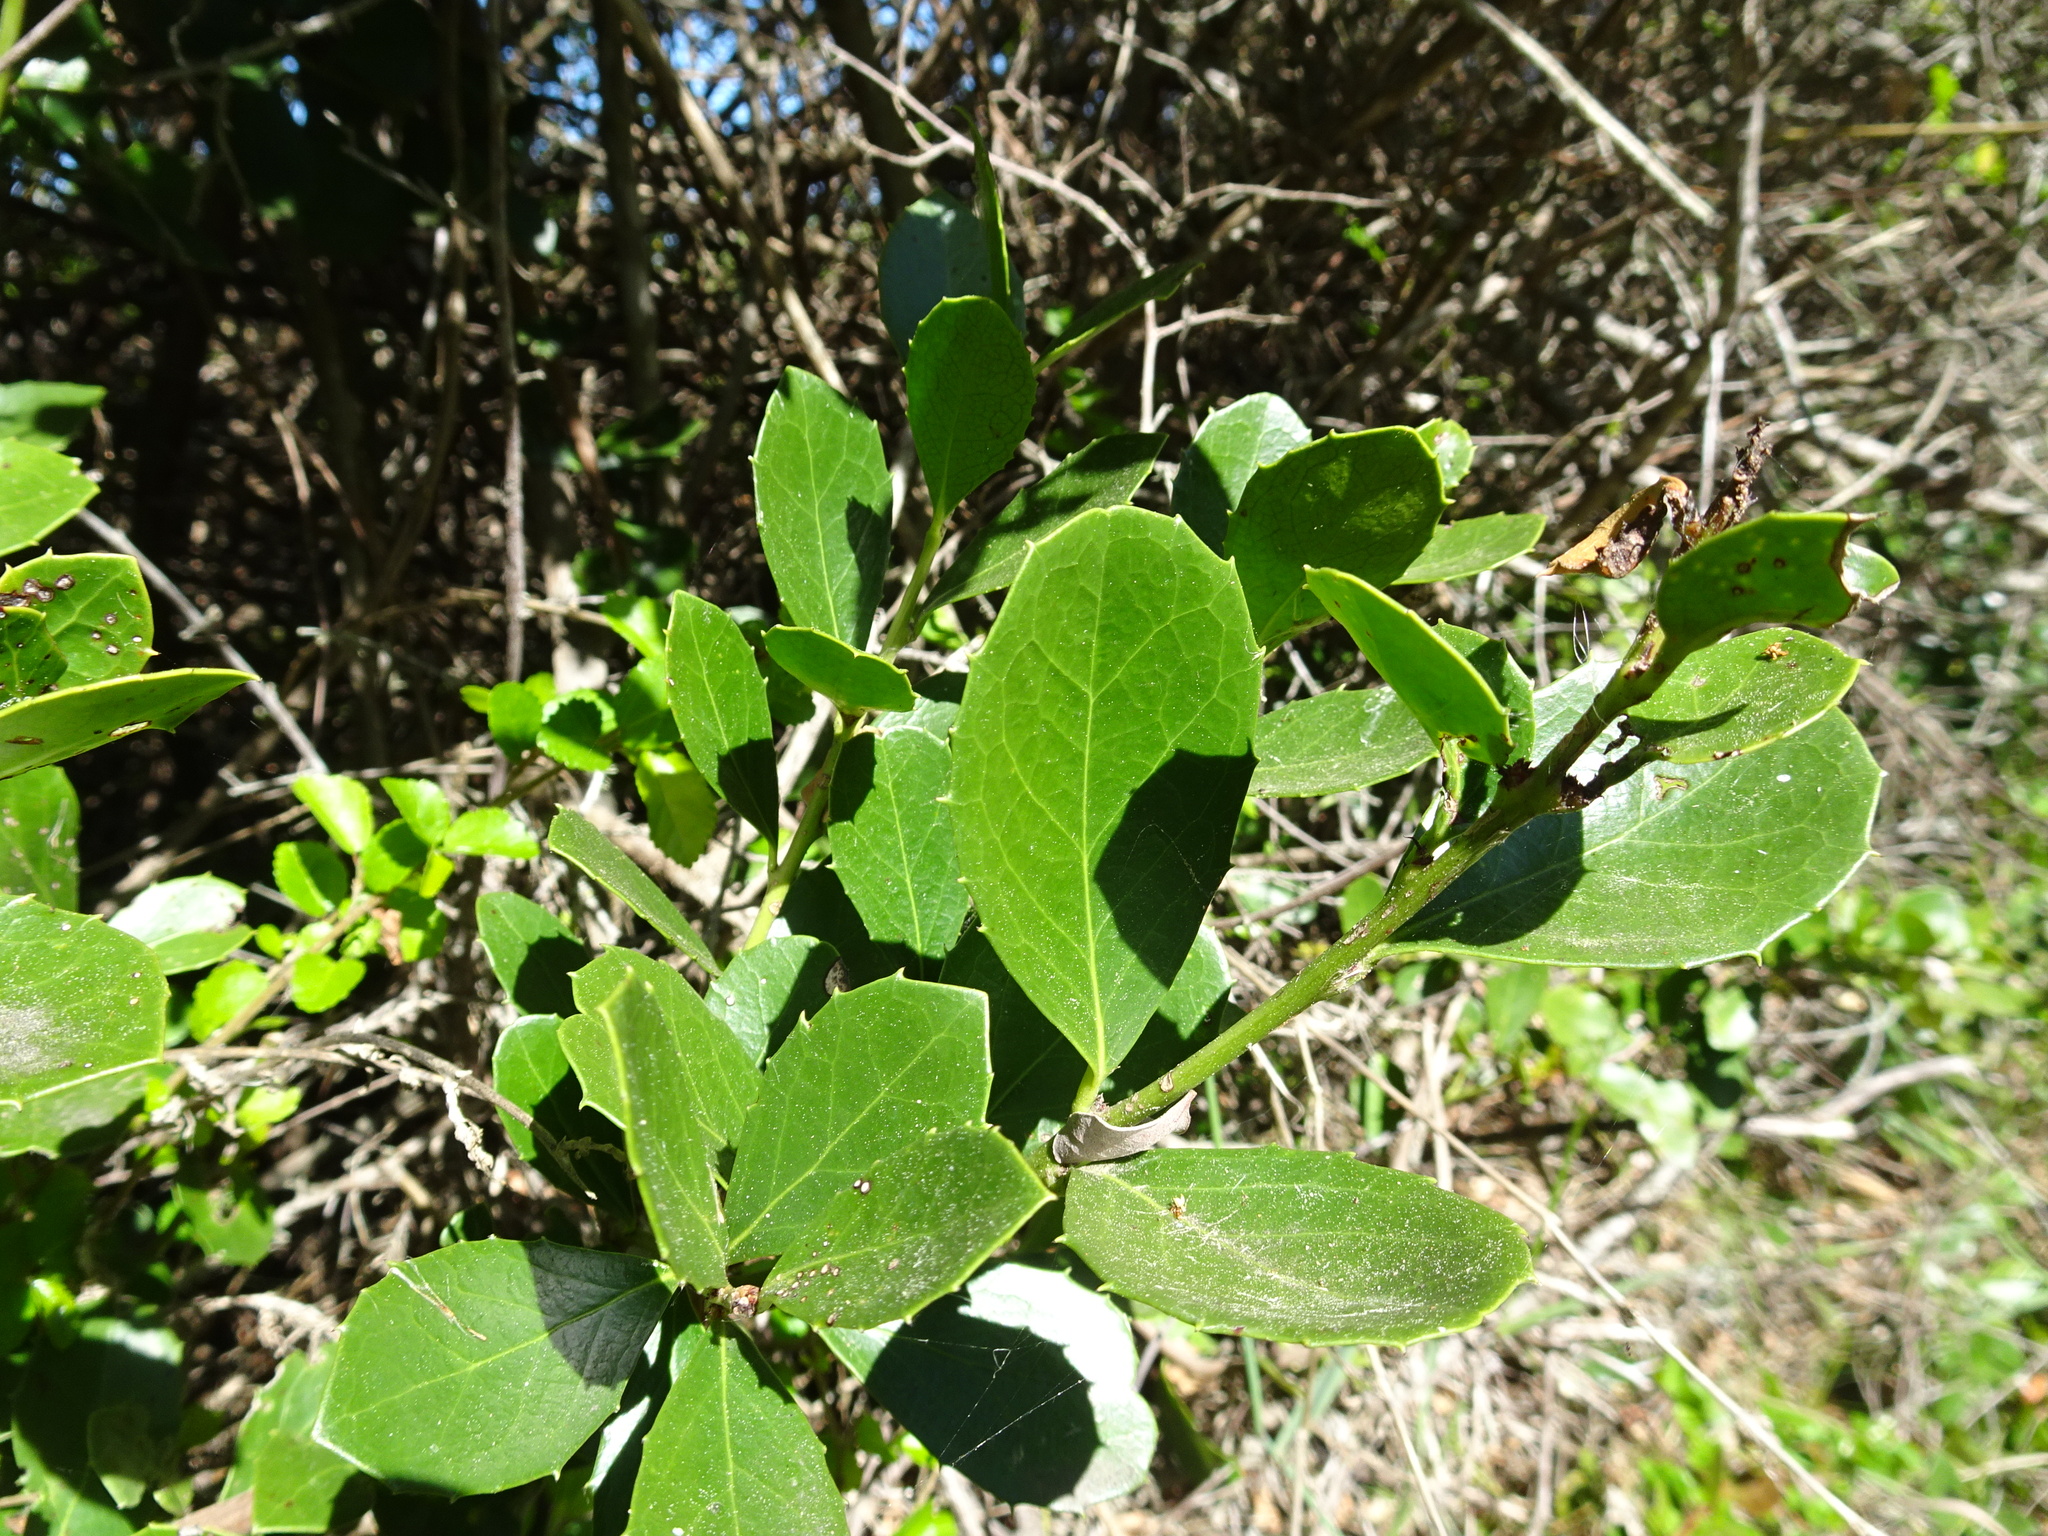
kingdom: Plantae
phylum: Tracheophyta
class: Magnoliopsida
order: Celastrales
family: Celastraceae
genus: Gymnosporia
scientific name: Gymnosporia procumbens
